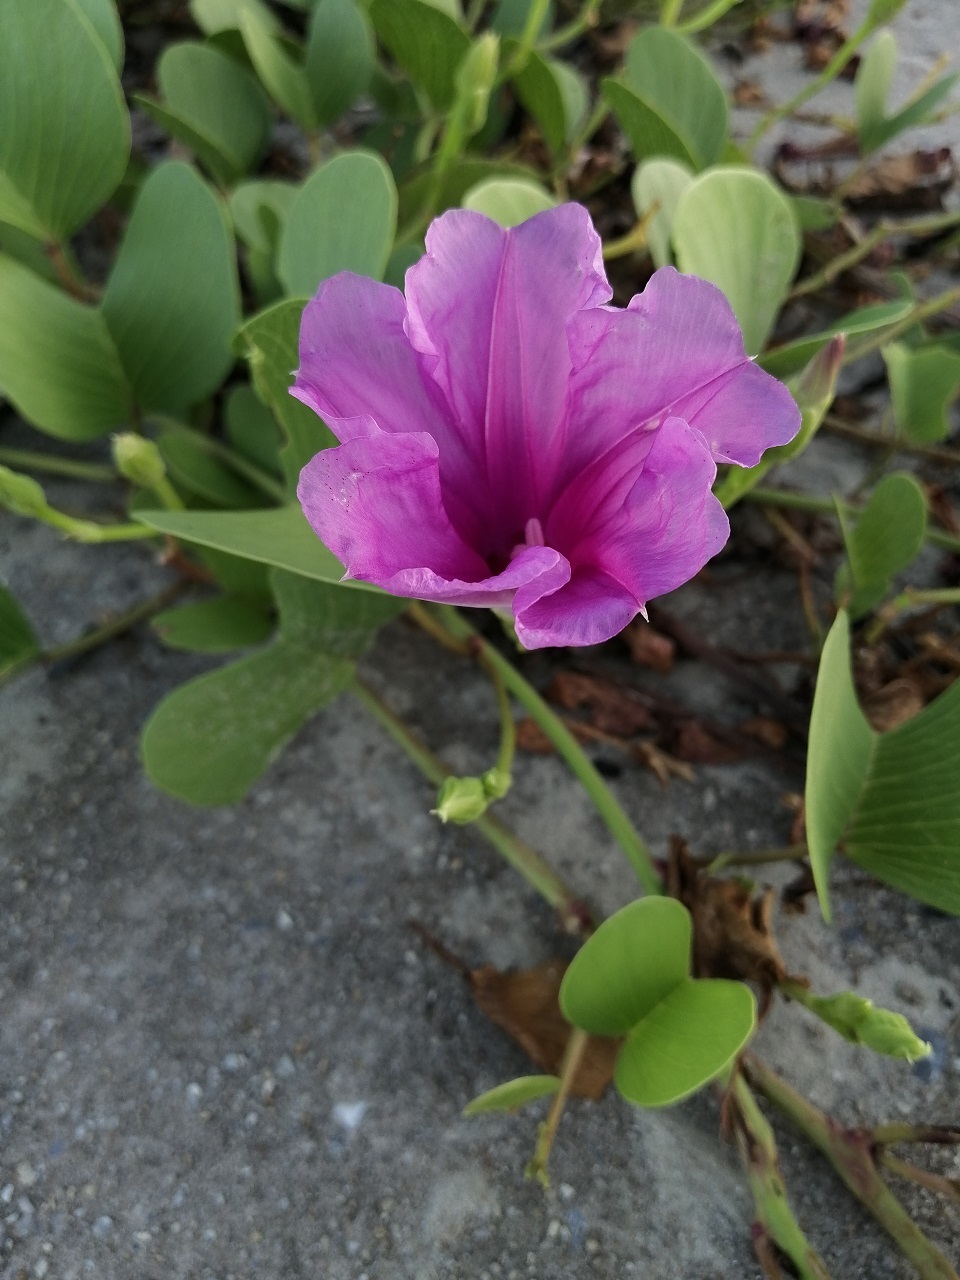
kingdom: Plantae
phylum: Tracheophyta
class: Magnoliopsida
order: Solanales
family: Convolvulaceae
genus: Ipomoea
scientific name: Ipomoea pes-caprae
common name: Beach morning glory
